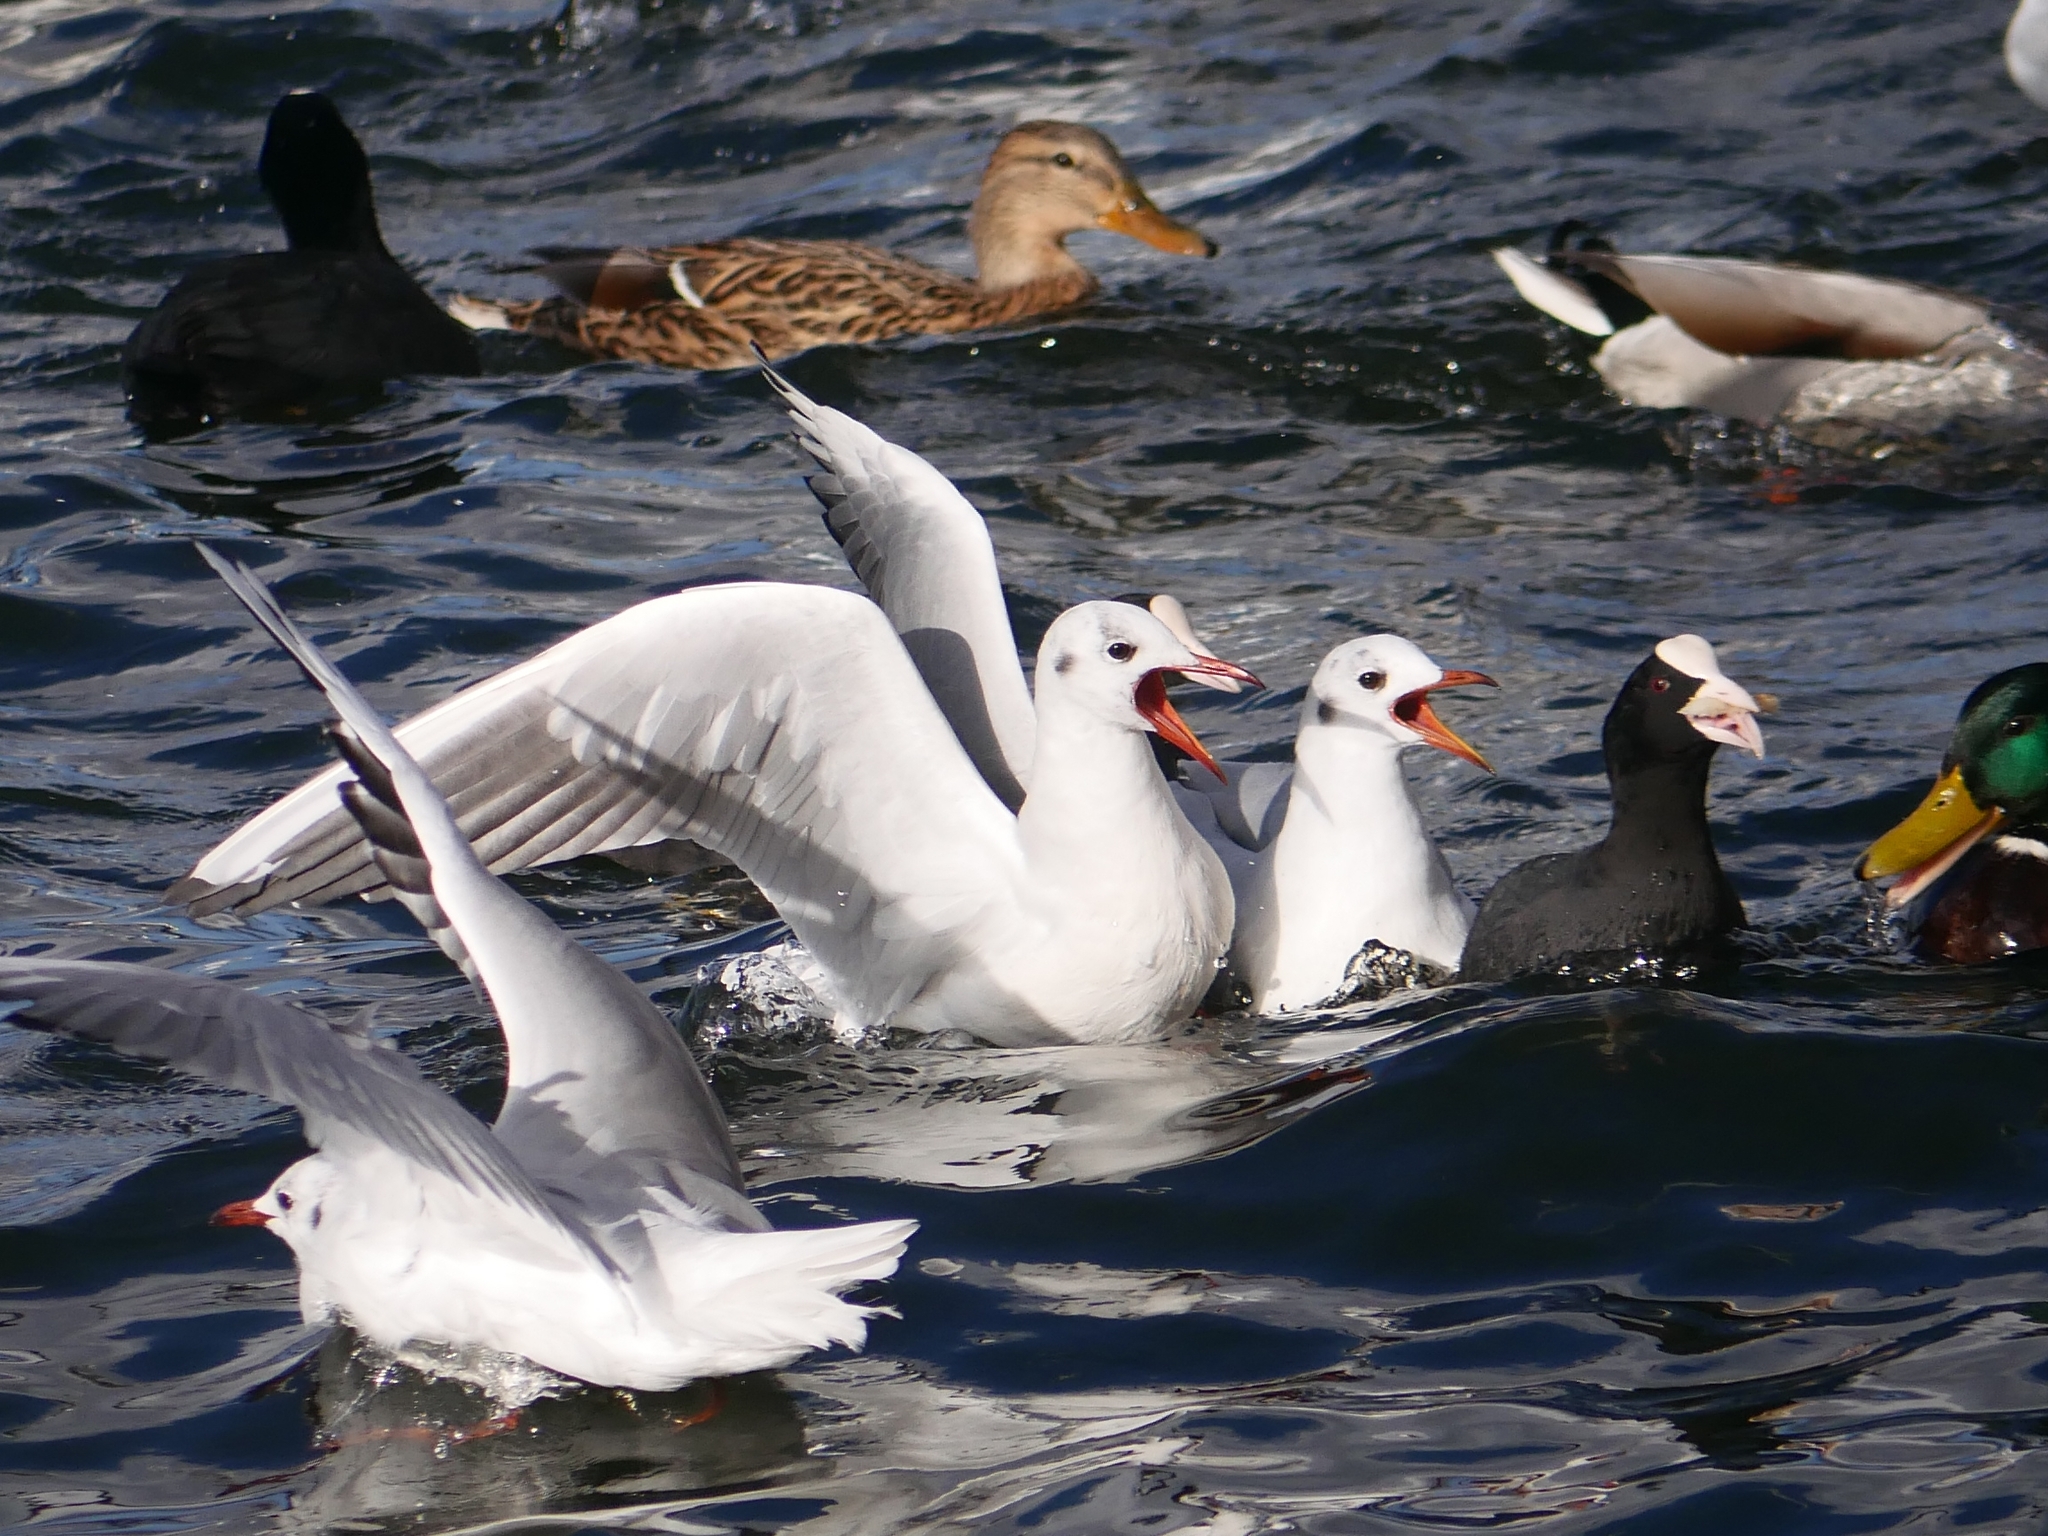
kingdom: Animalia
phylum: Chordata
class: Aves
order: Charadriiformes
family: Laridae
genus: Chroicocephalus
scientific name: Chroicocephalus ridibundus
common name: Black-headed gull
